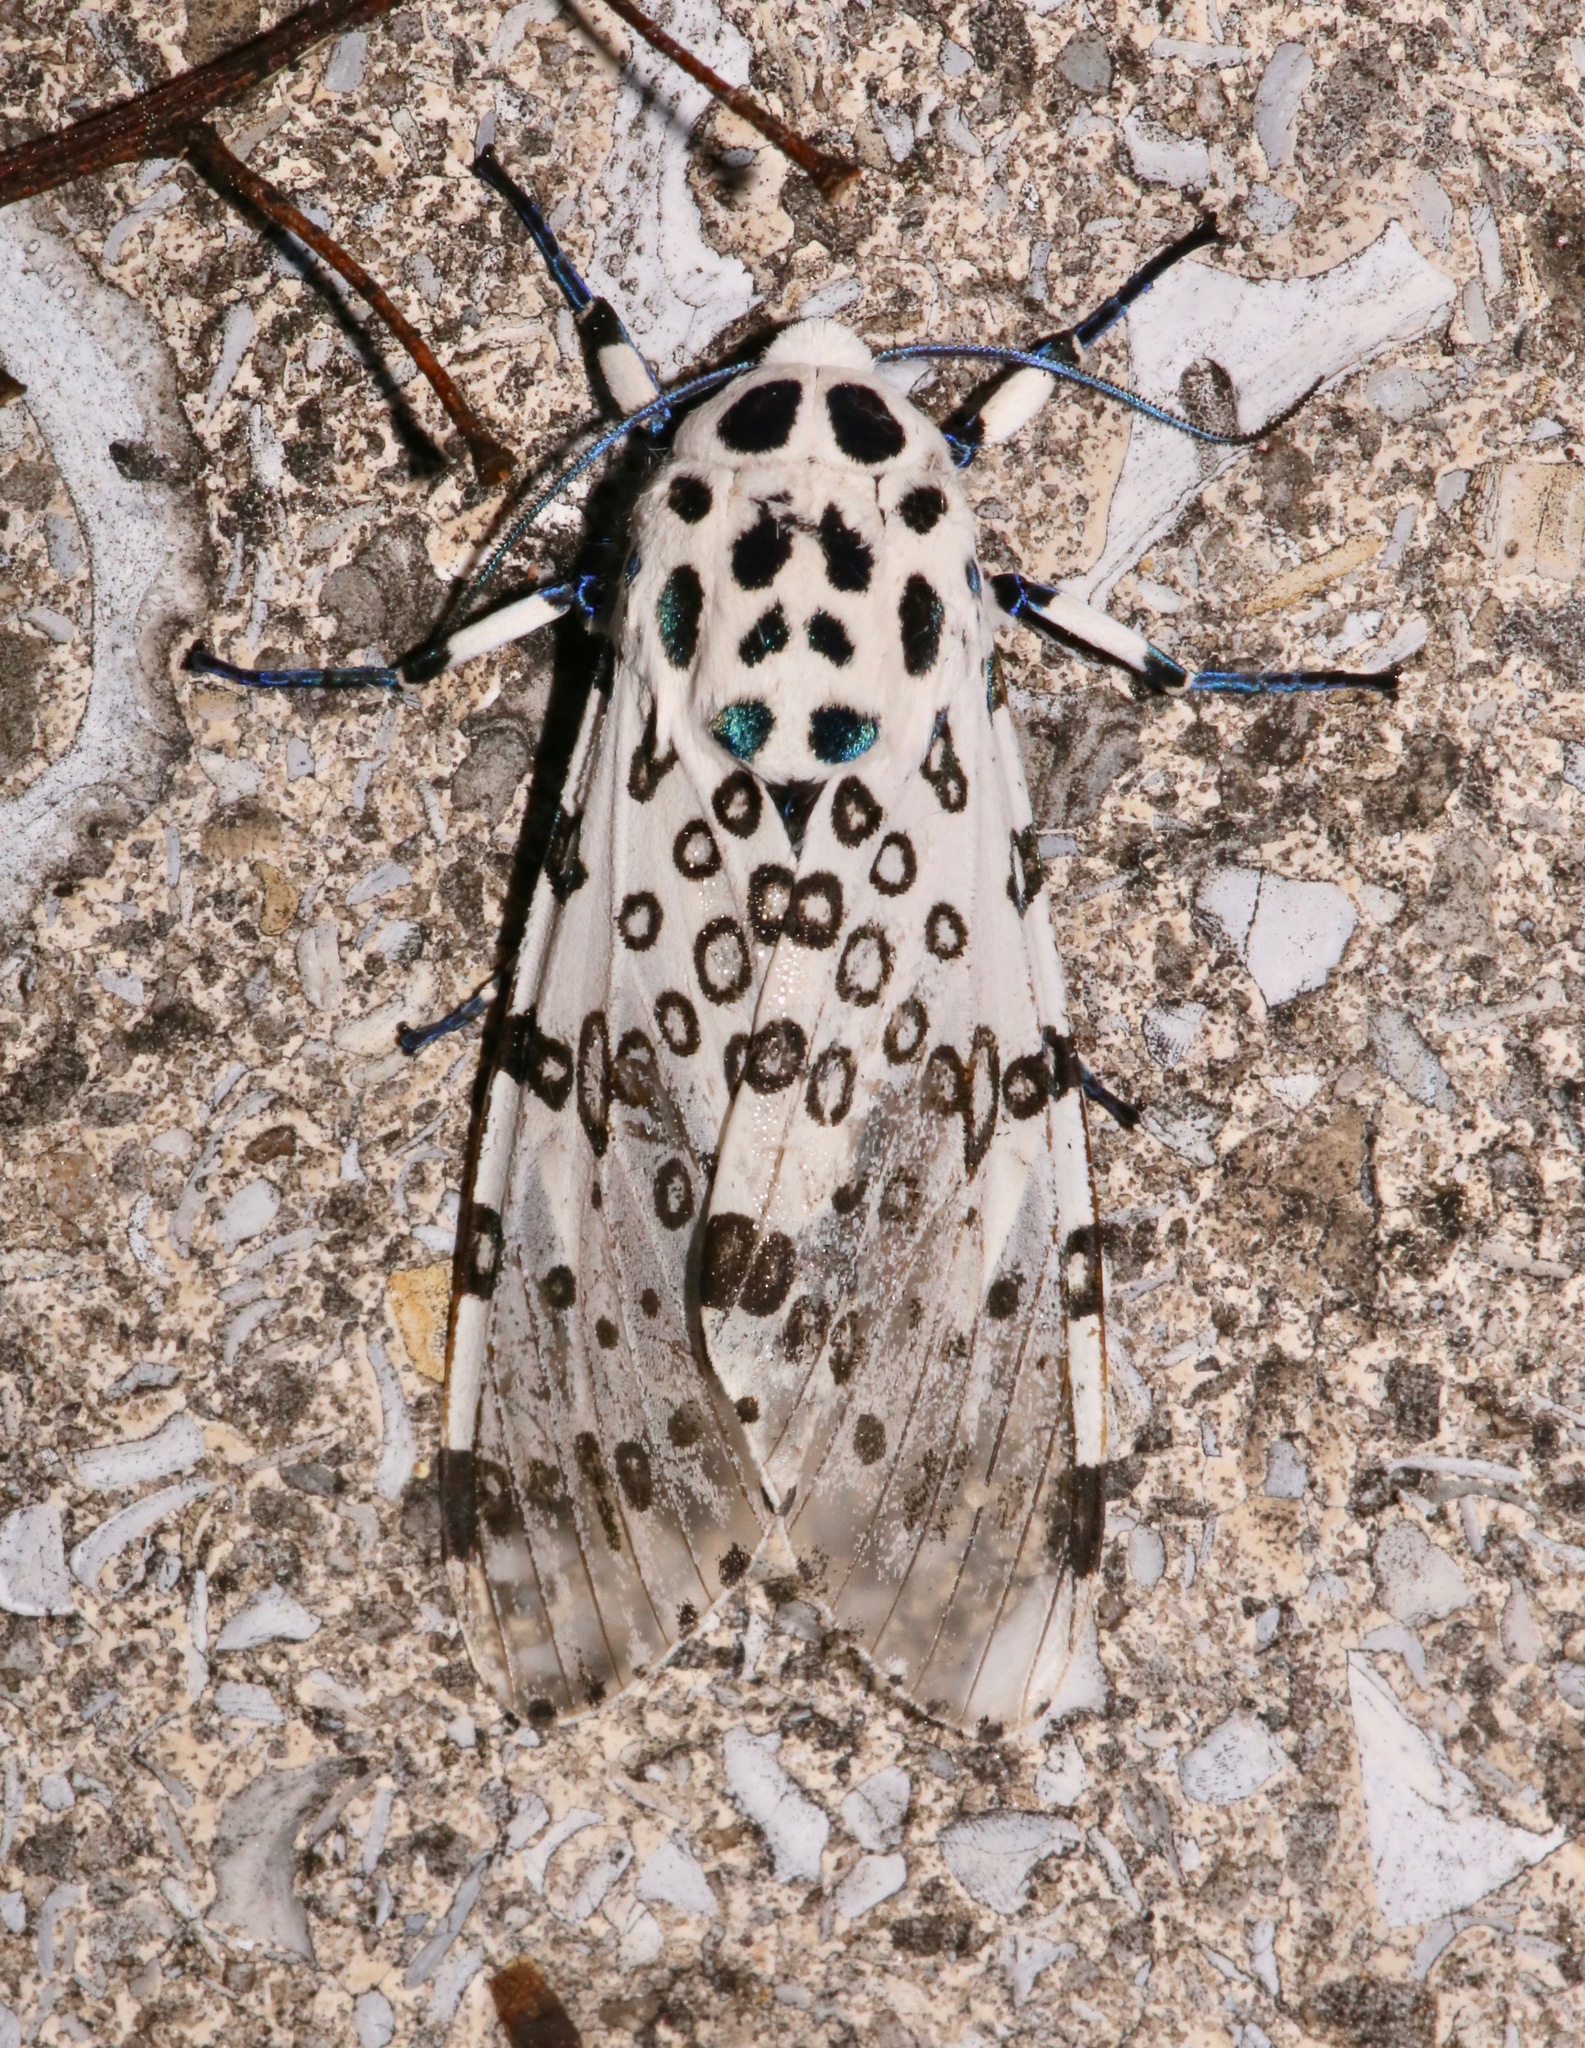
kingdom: Animalia
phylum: Arthropoda
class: Insecta
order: Lepidoptera
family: Erebidae
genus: Hypercompe
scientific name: Hypercompe scribonia
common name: Giant leopard moth
